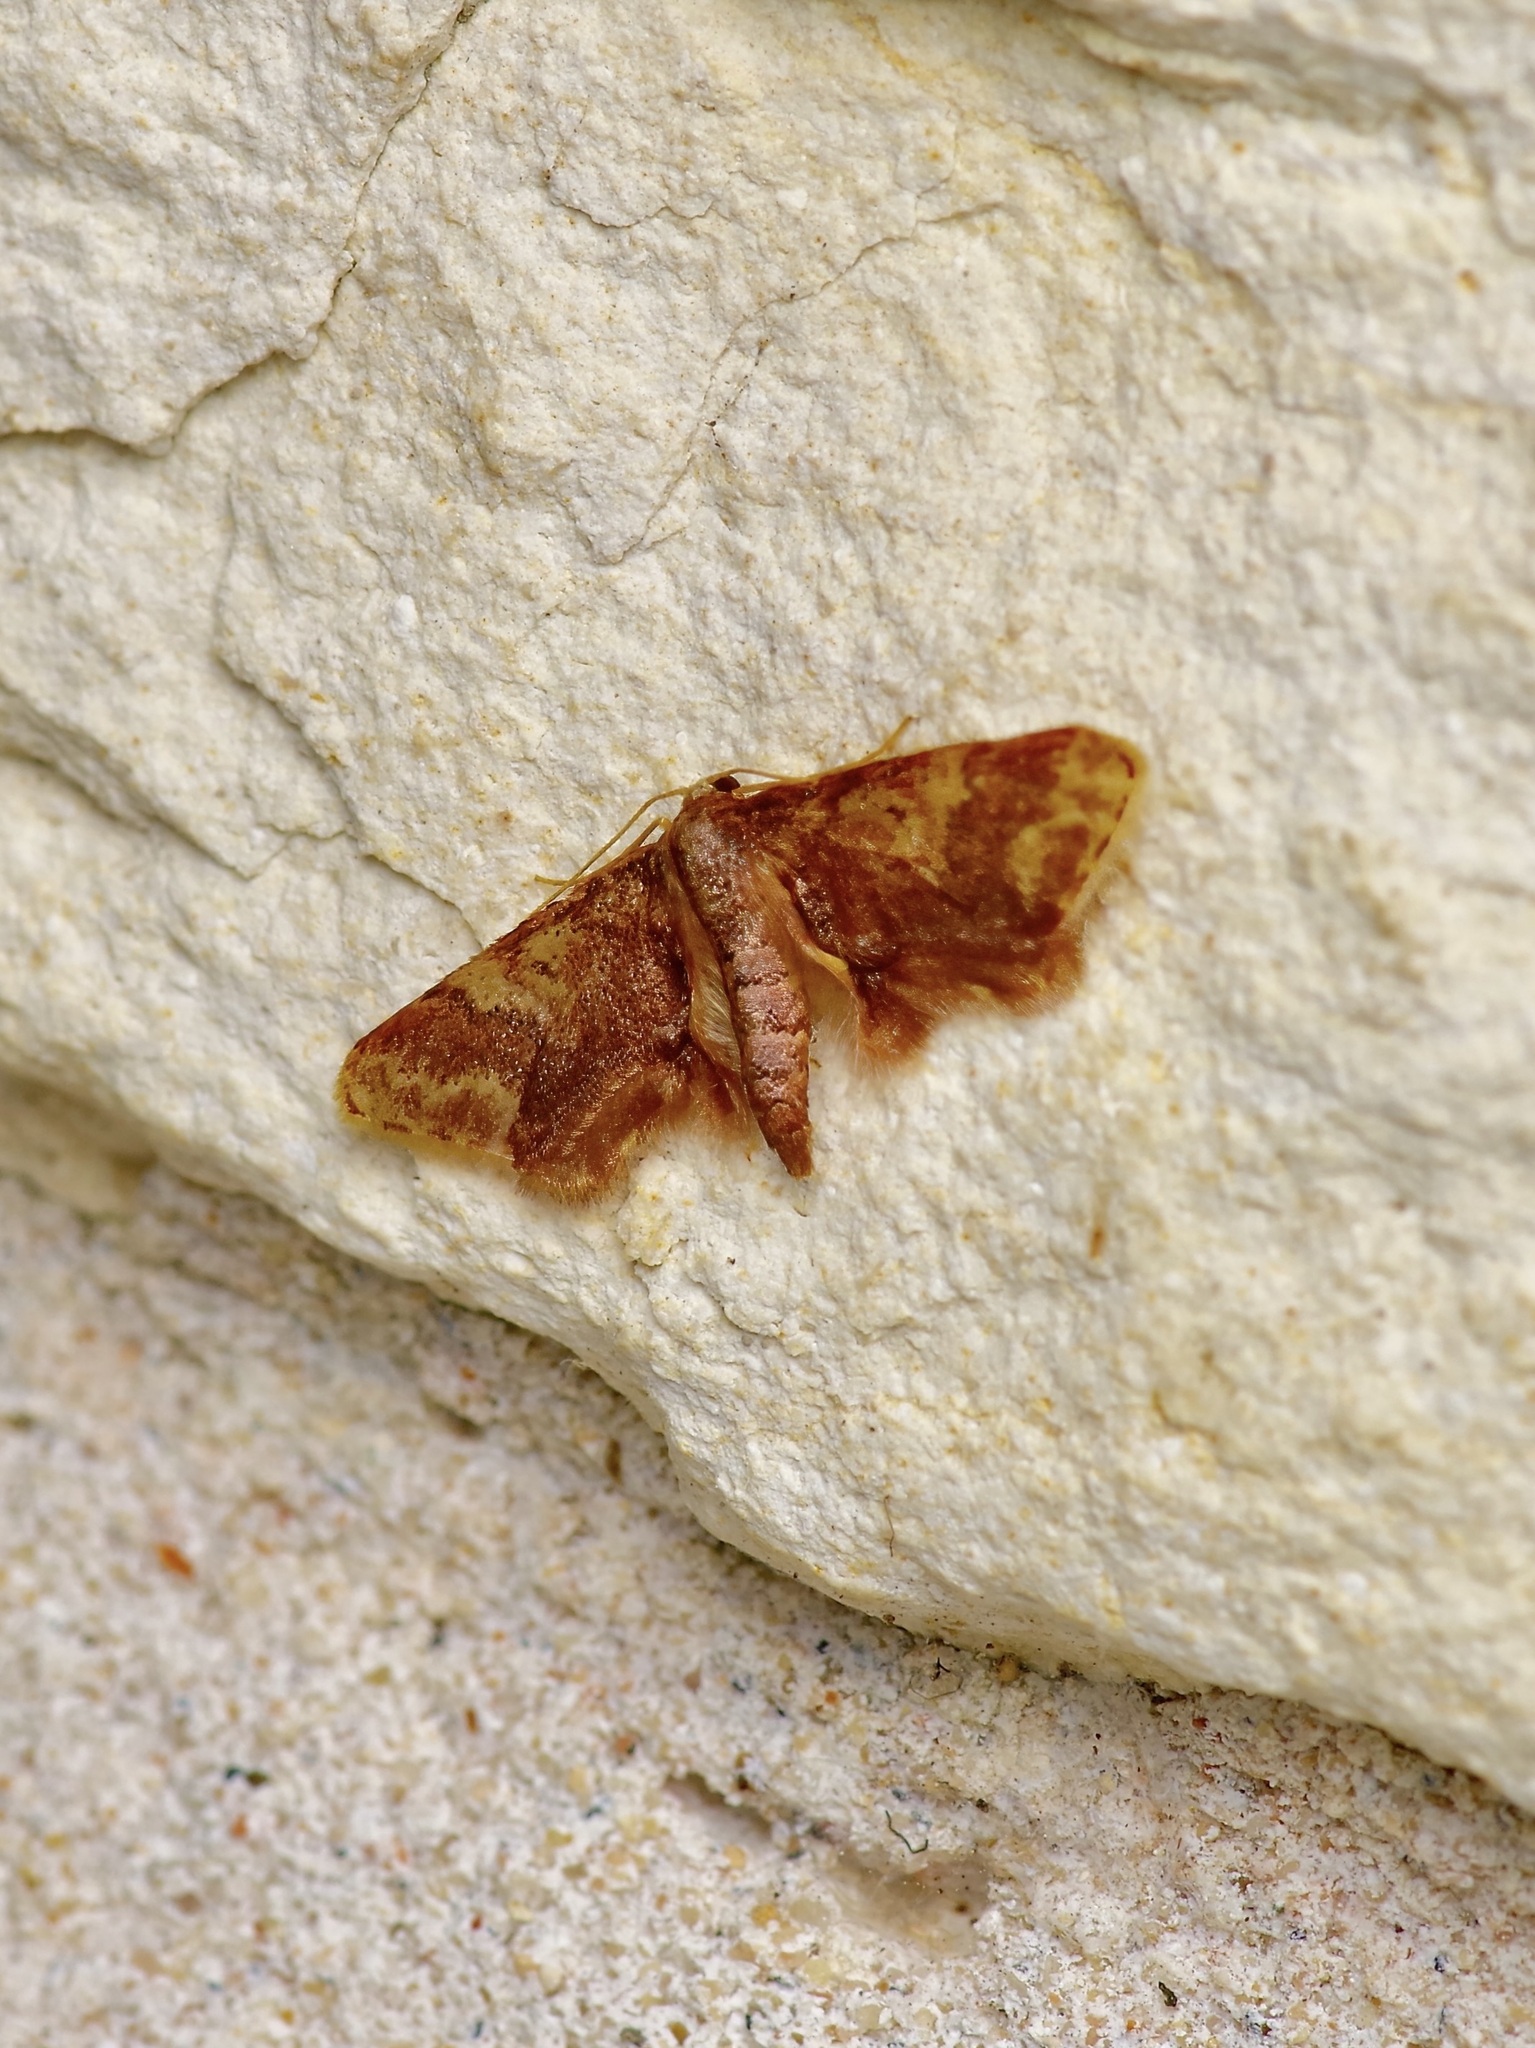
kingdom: Animalia
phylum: Arthropoda
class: Insecta
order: Lepidoptera
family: Geometridae
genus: Idaea
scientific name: Idaea furciferata
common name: Notch-winged wave
